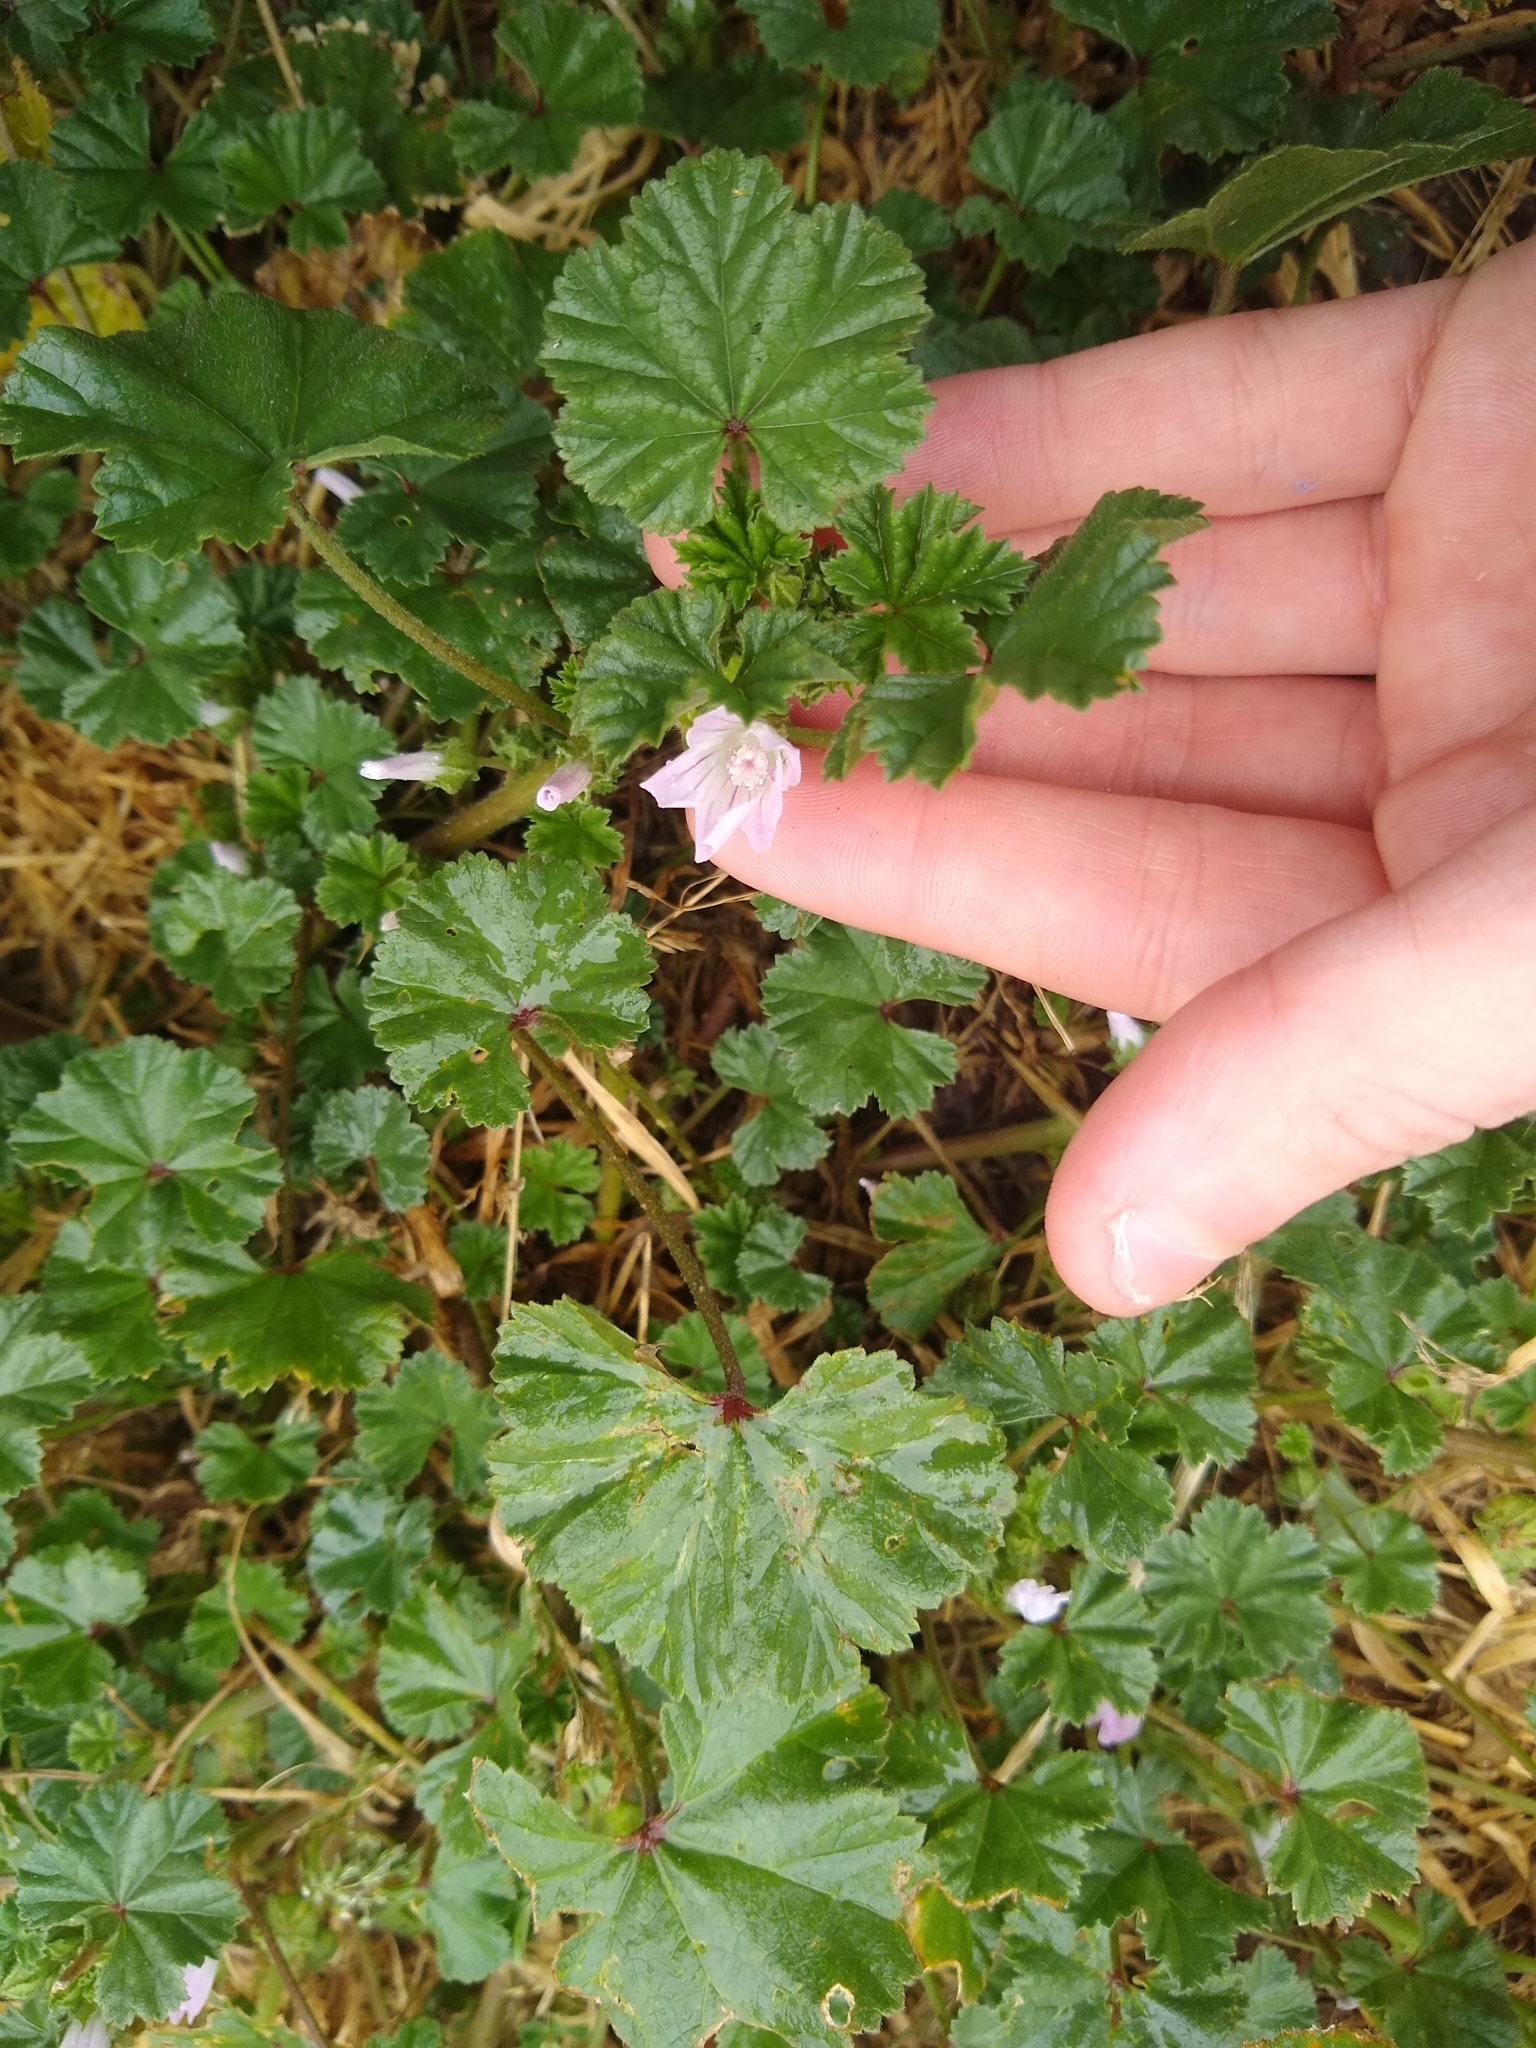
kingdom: Plantae
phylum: Tracheophyta
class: Magnoliopsida
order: Malvales
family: Malvaceae
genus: Malva
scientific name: Malva neglecta
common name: Common mallow
